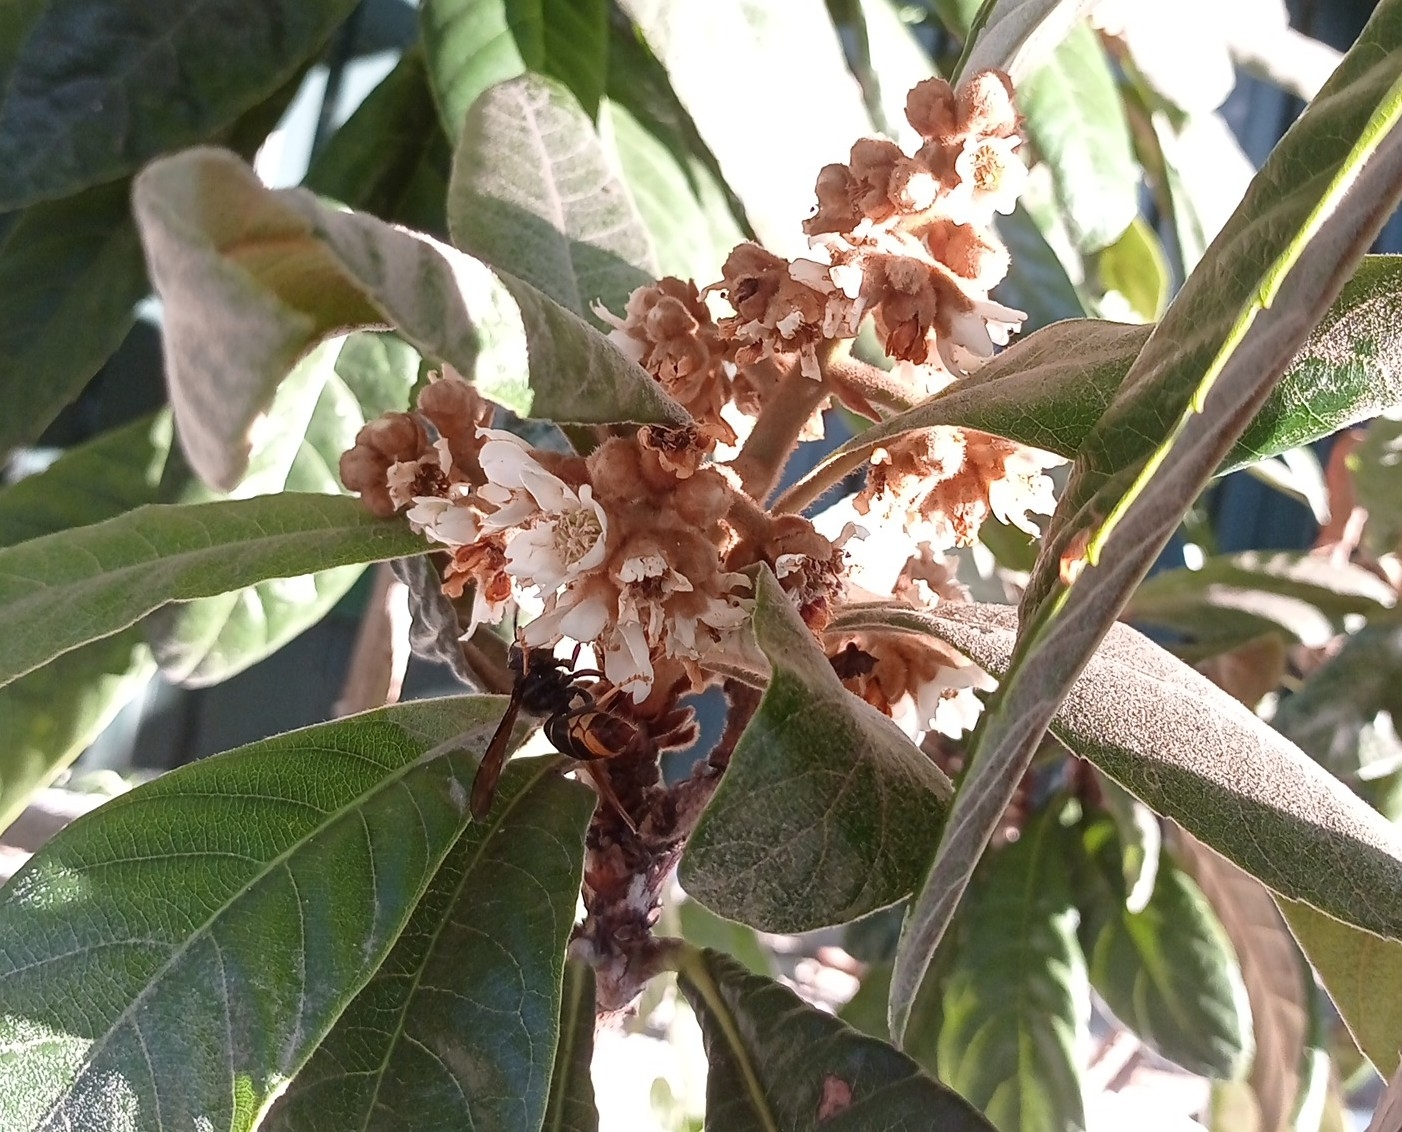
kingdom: Animalia
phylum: Arthropoda
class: Insecta
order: Hymenoptera
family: Vespidae
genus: Vespa
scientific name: Vespa velutina
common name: Asian hornet
